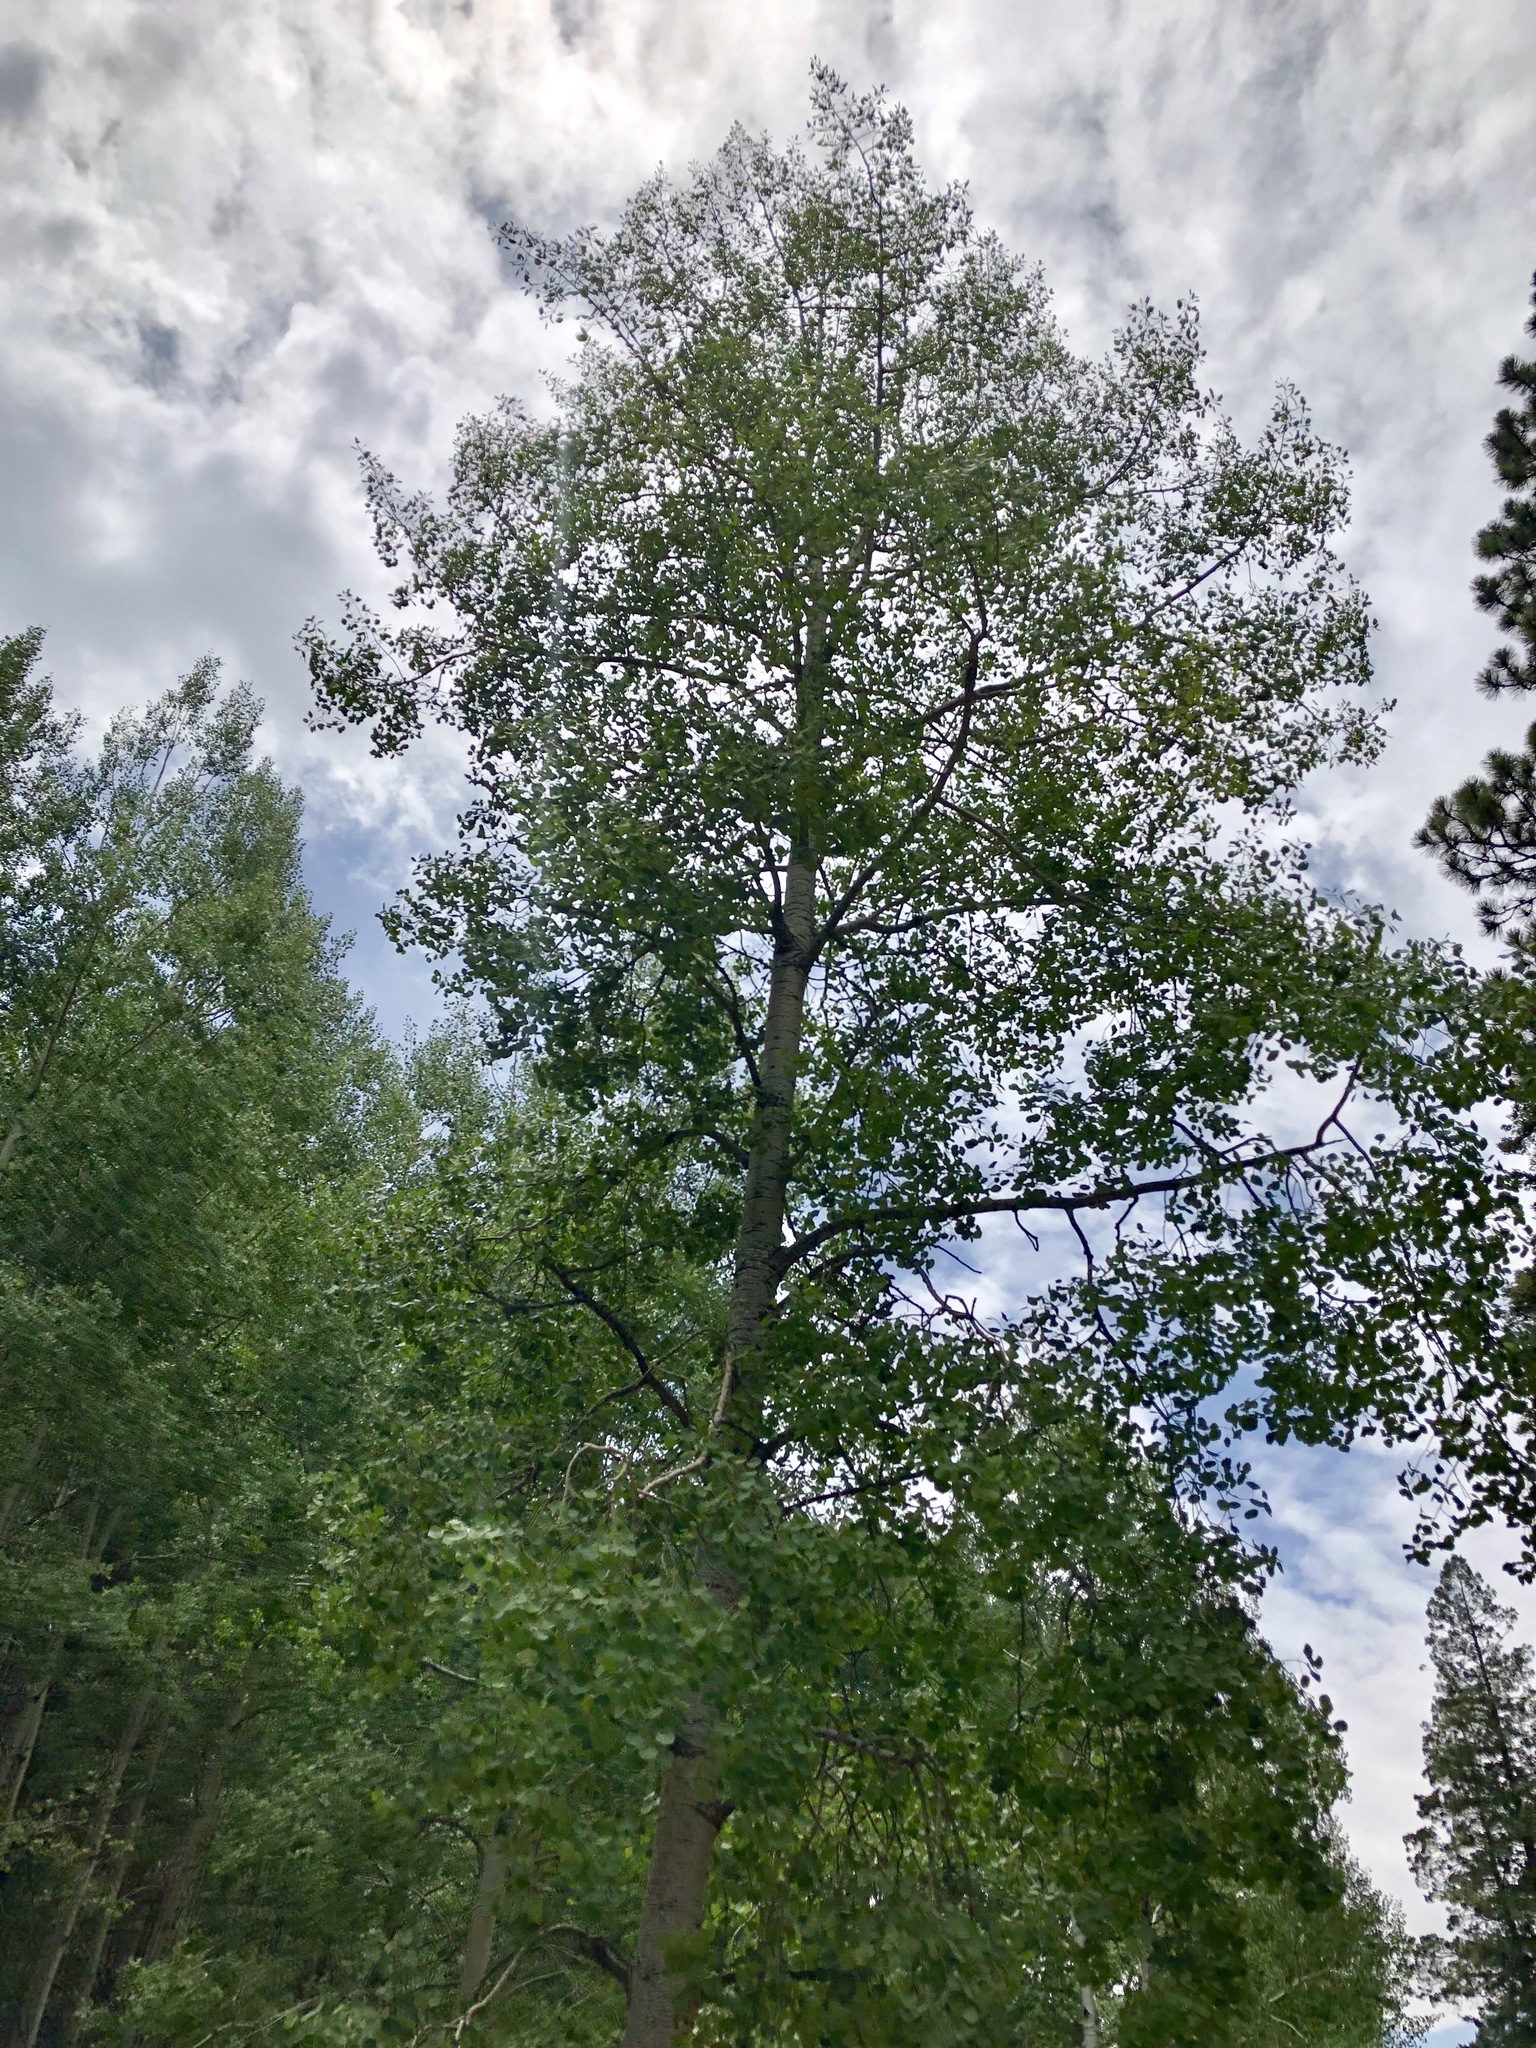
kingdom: Plantae
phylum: Tracheophyta
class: Magnoliopsida
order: Malpighiales
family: Salicaceae
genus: Populus
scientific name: Populus tremuloides
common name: Quaking aspen
